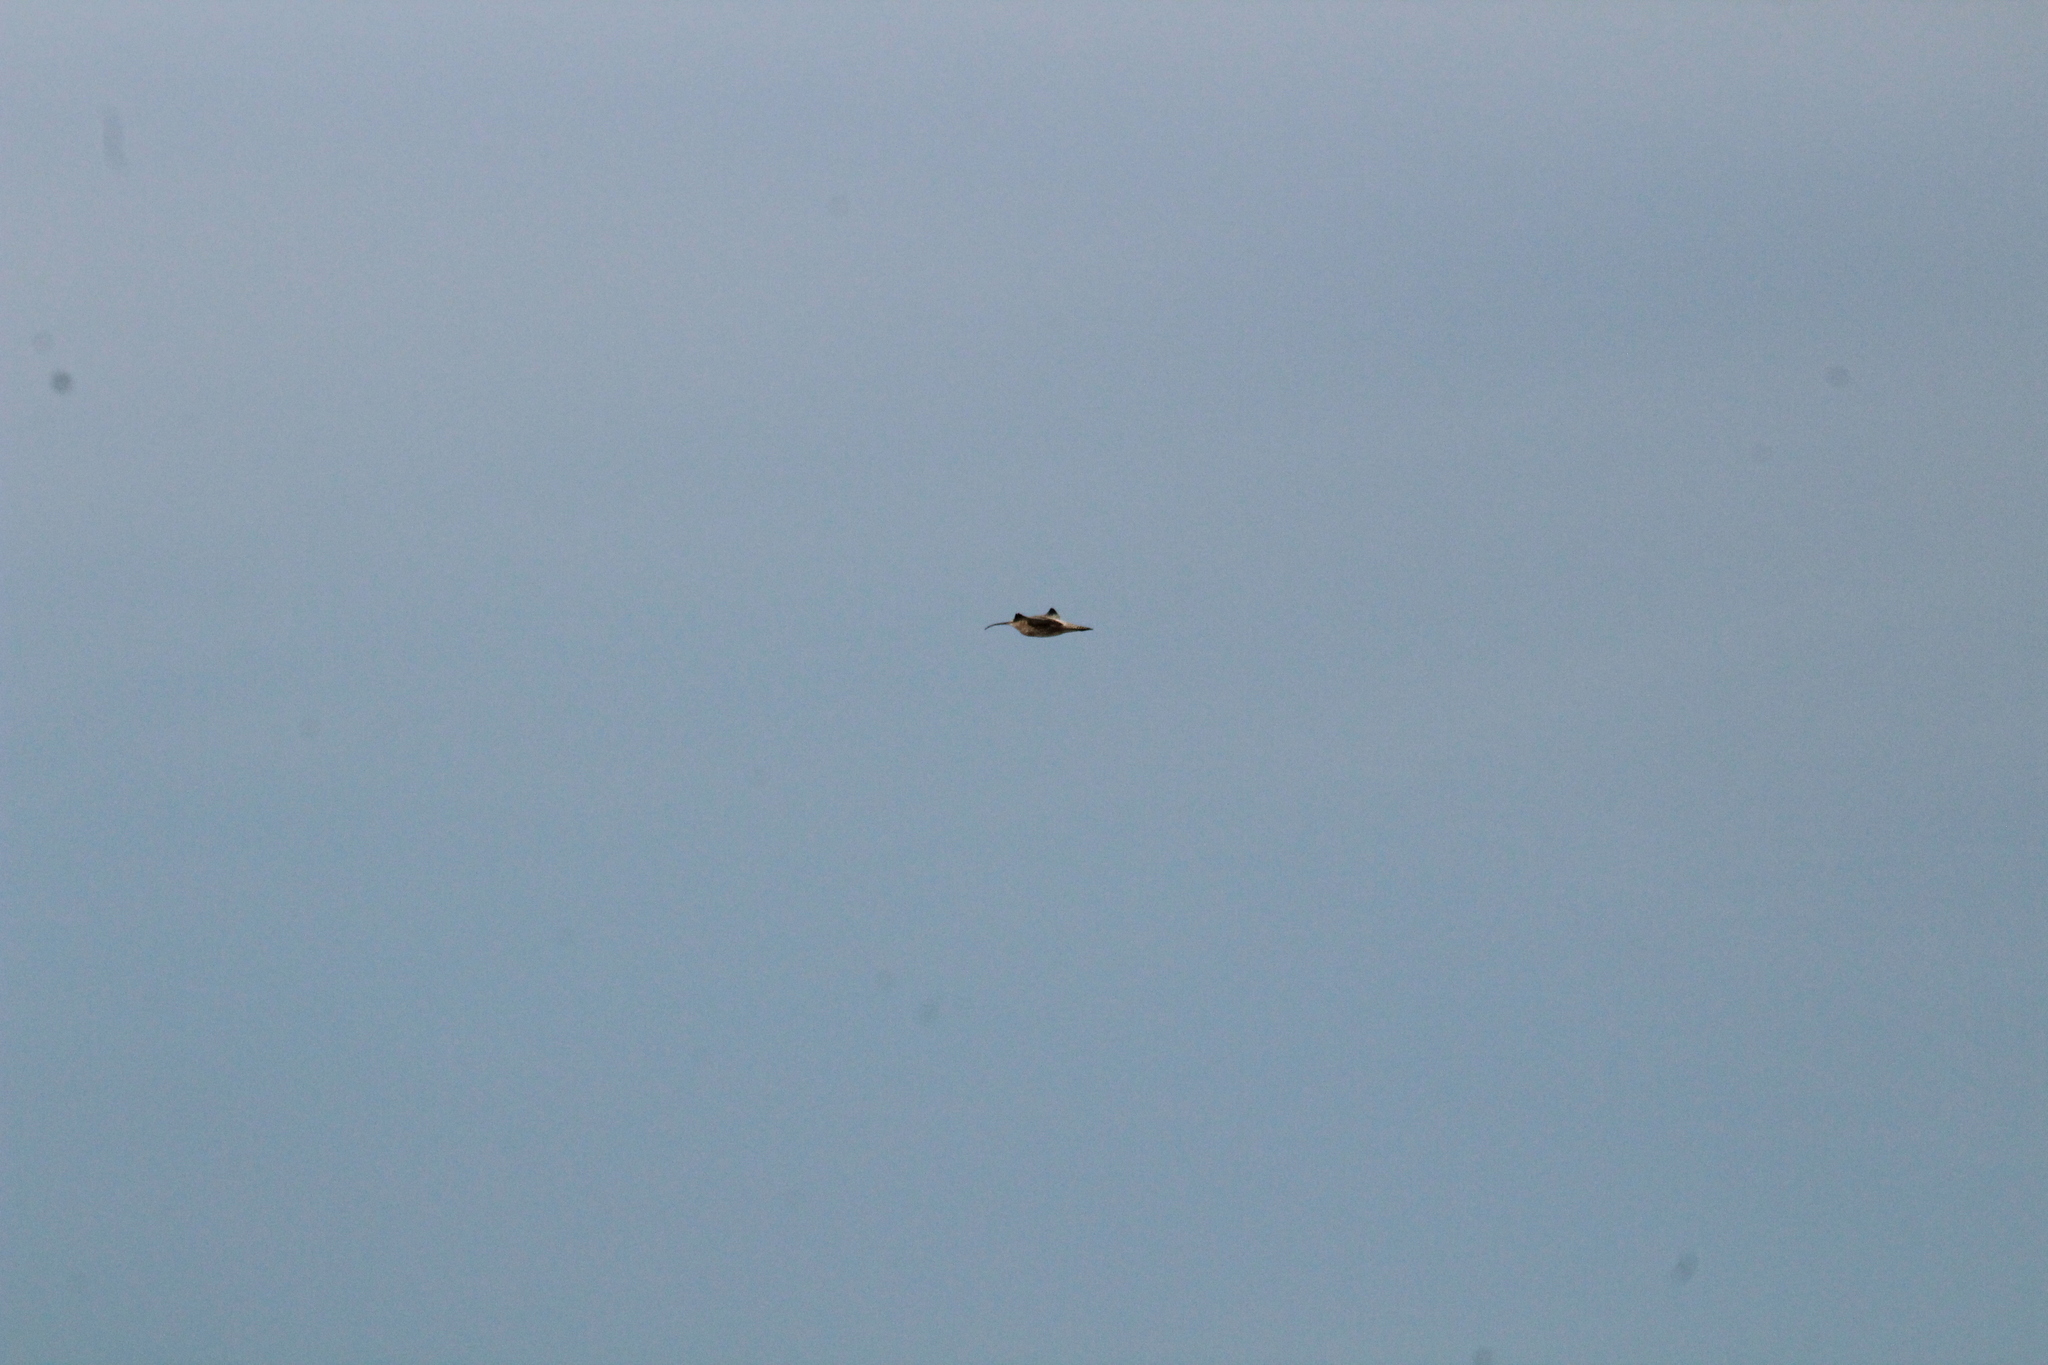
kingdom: Animalia
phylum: Chordata
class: Aves
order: Charadriiformes
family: Scolopacidae
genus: Numenius
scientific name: Numenius arquata
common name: Eurasian curlew
